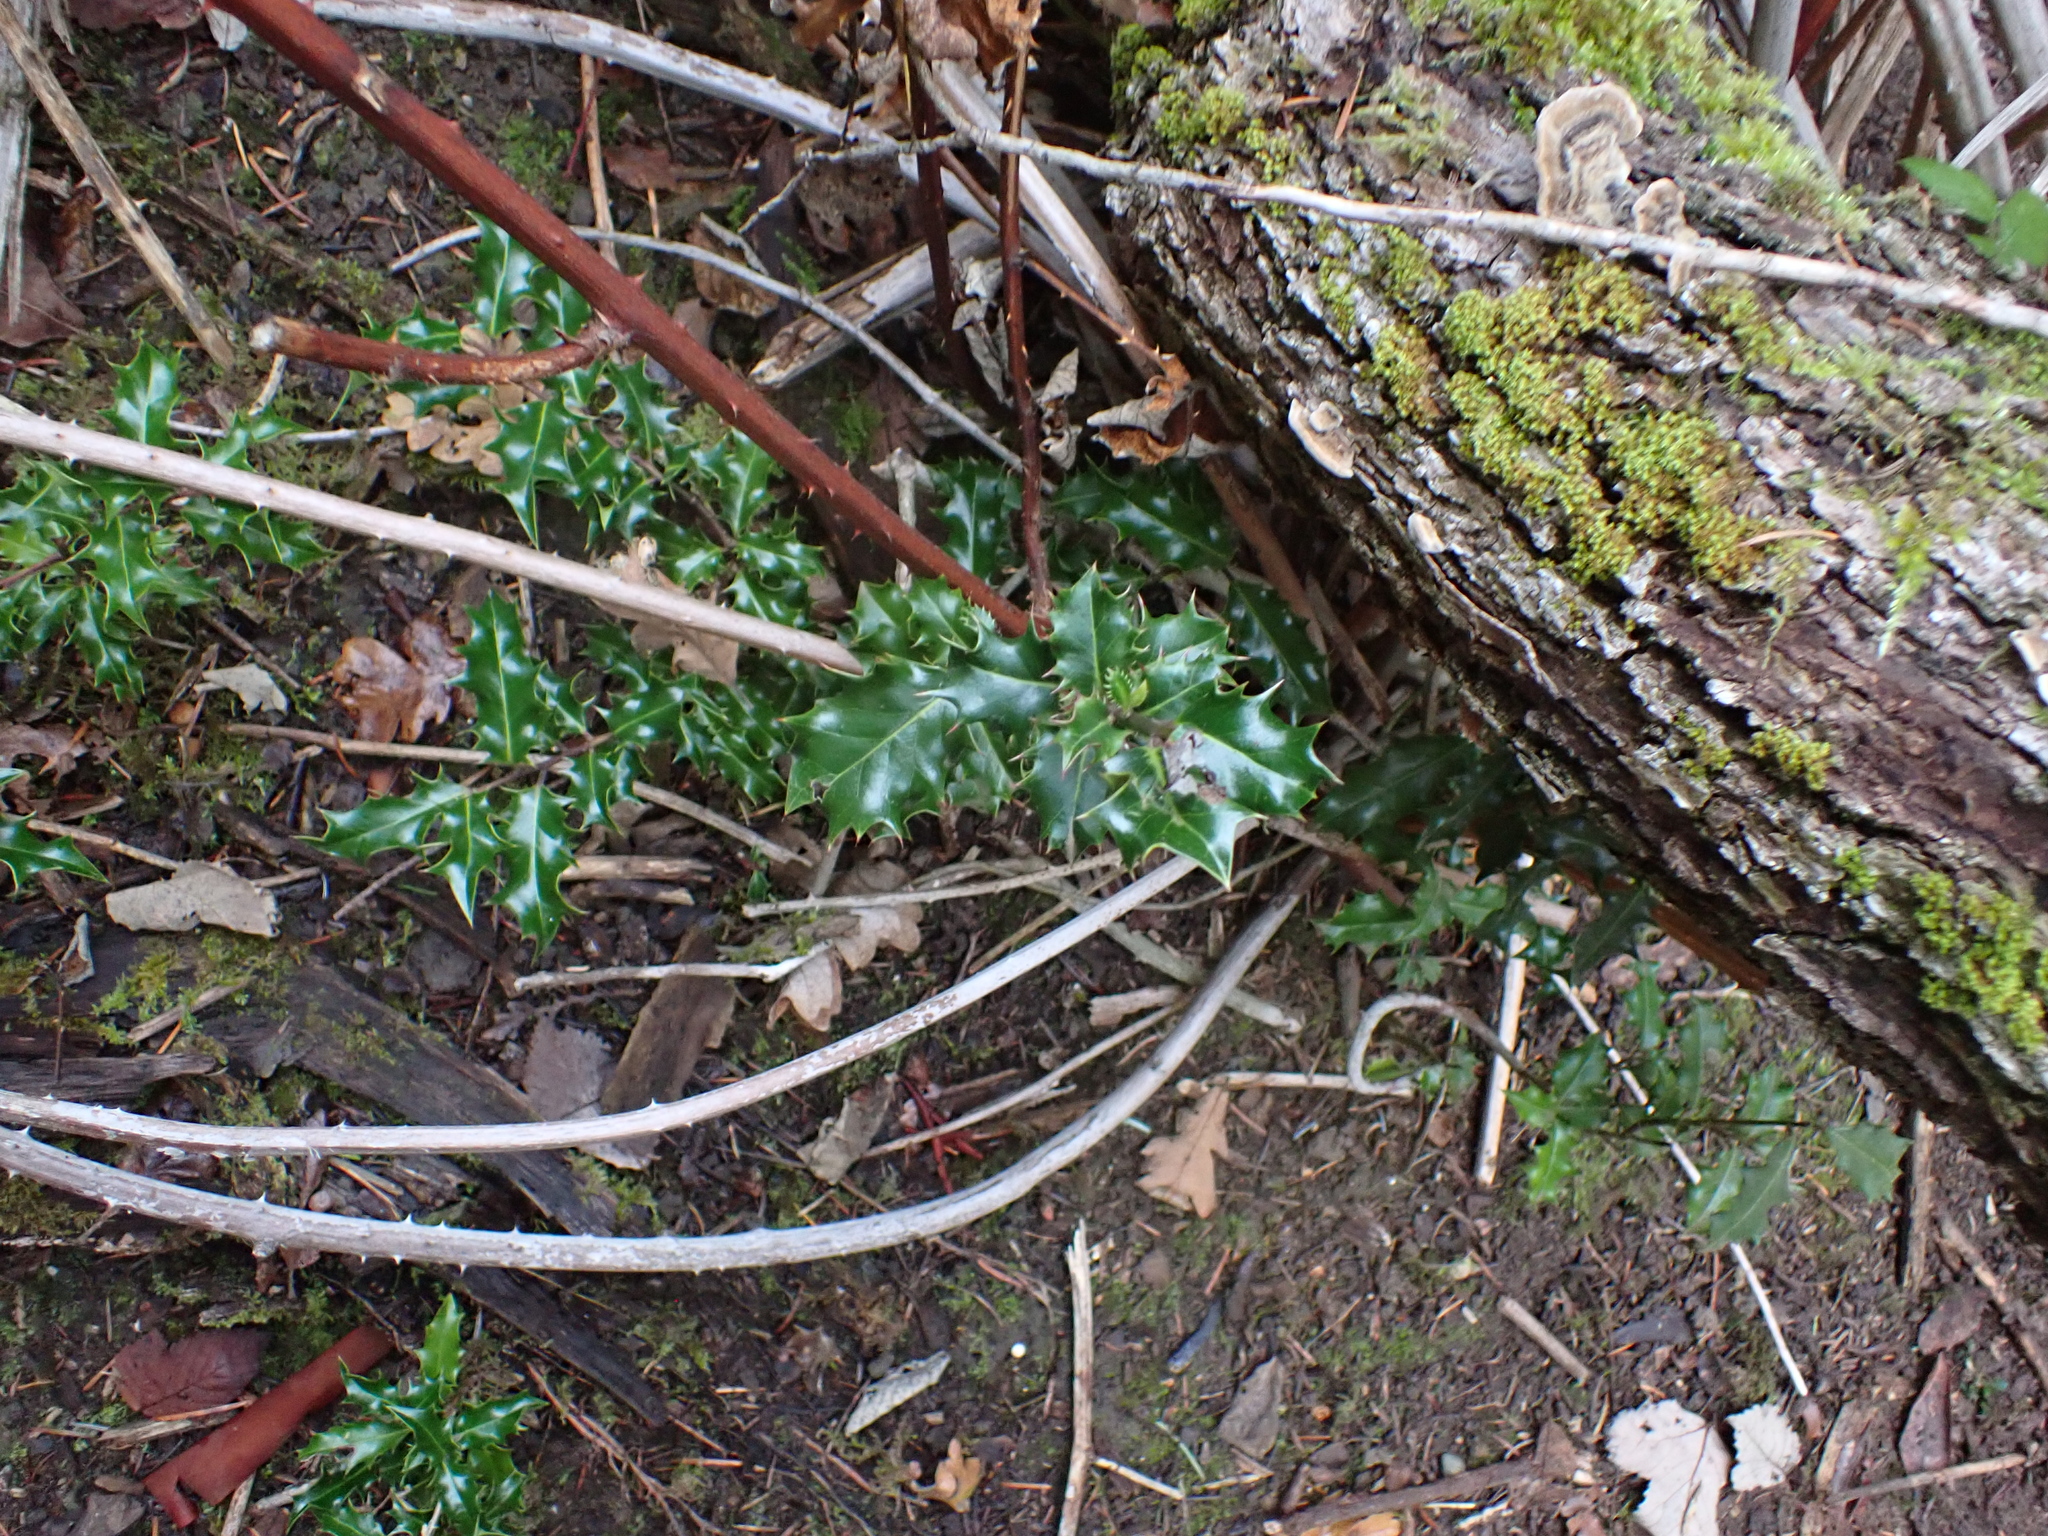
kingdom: Plantae
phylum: Tracheophyta
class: Magnoliopsida
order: Aquifoliales
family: Aquifoliaceae
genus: Ilex
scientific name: Ilex aquifolium
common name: English holly
